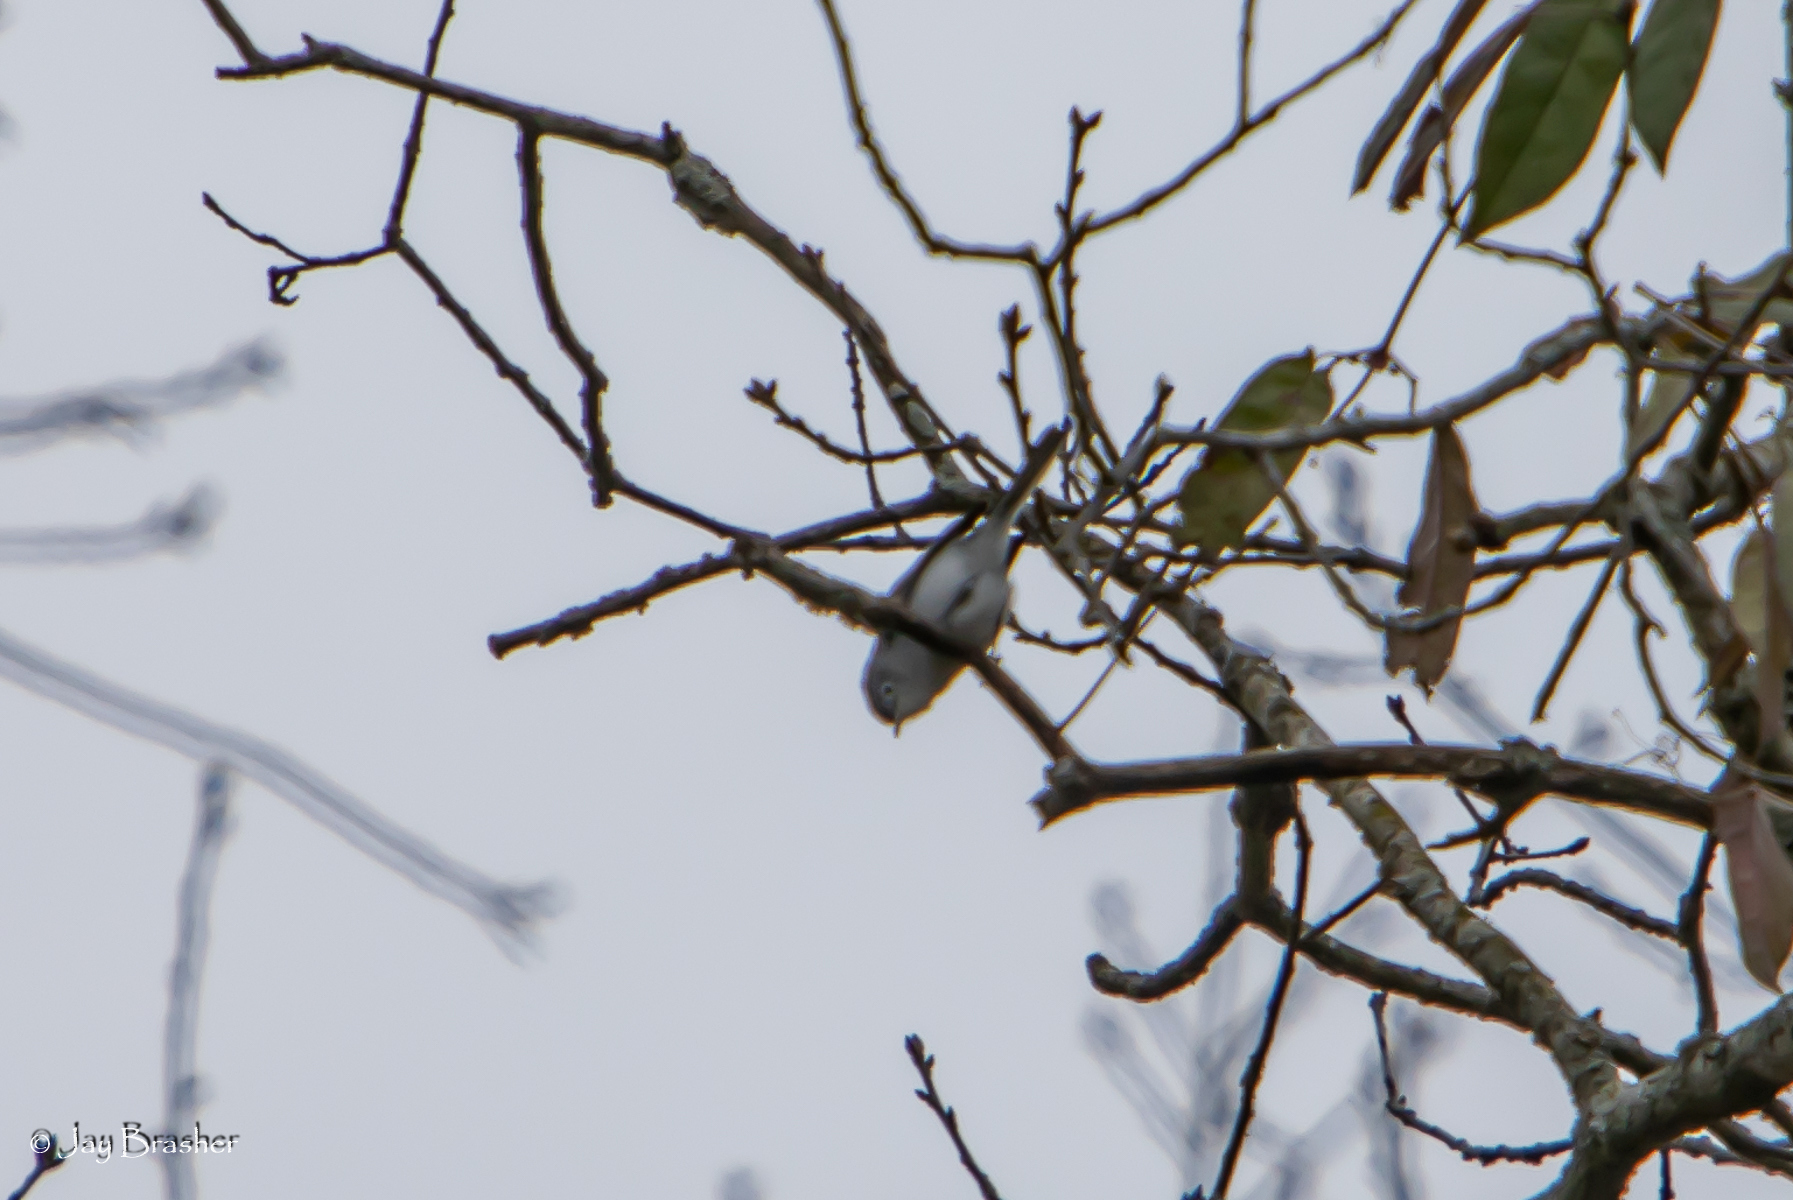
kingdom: Animalia
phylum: Chordata
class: Aves
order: Passeriformes
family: Polioptilidae
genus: Polioptila
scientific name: Polioptila caerulea
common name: Blue-gray gnatcatcher
